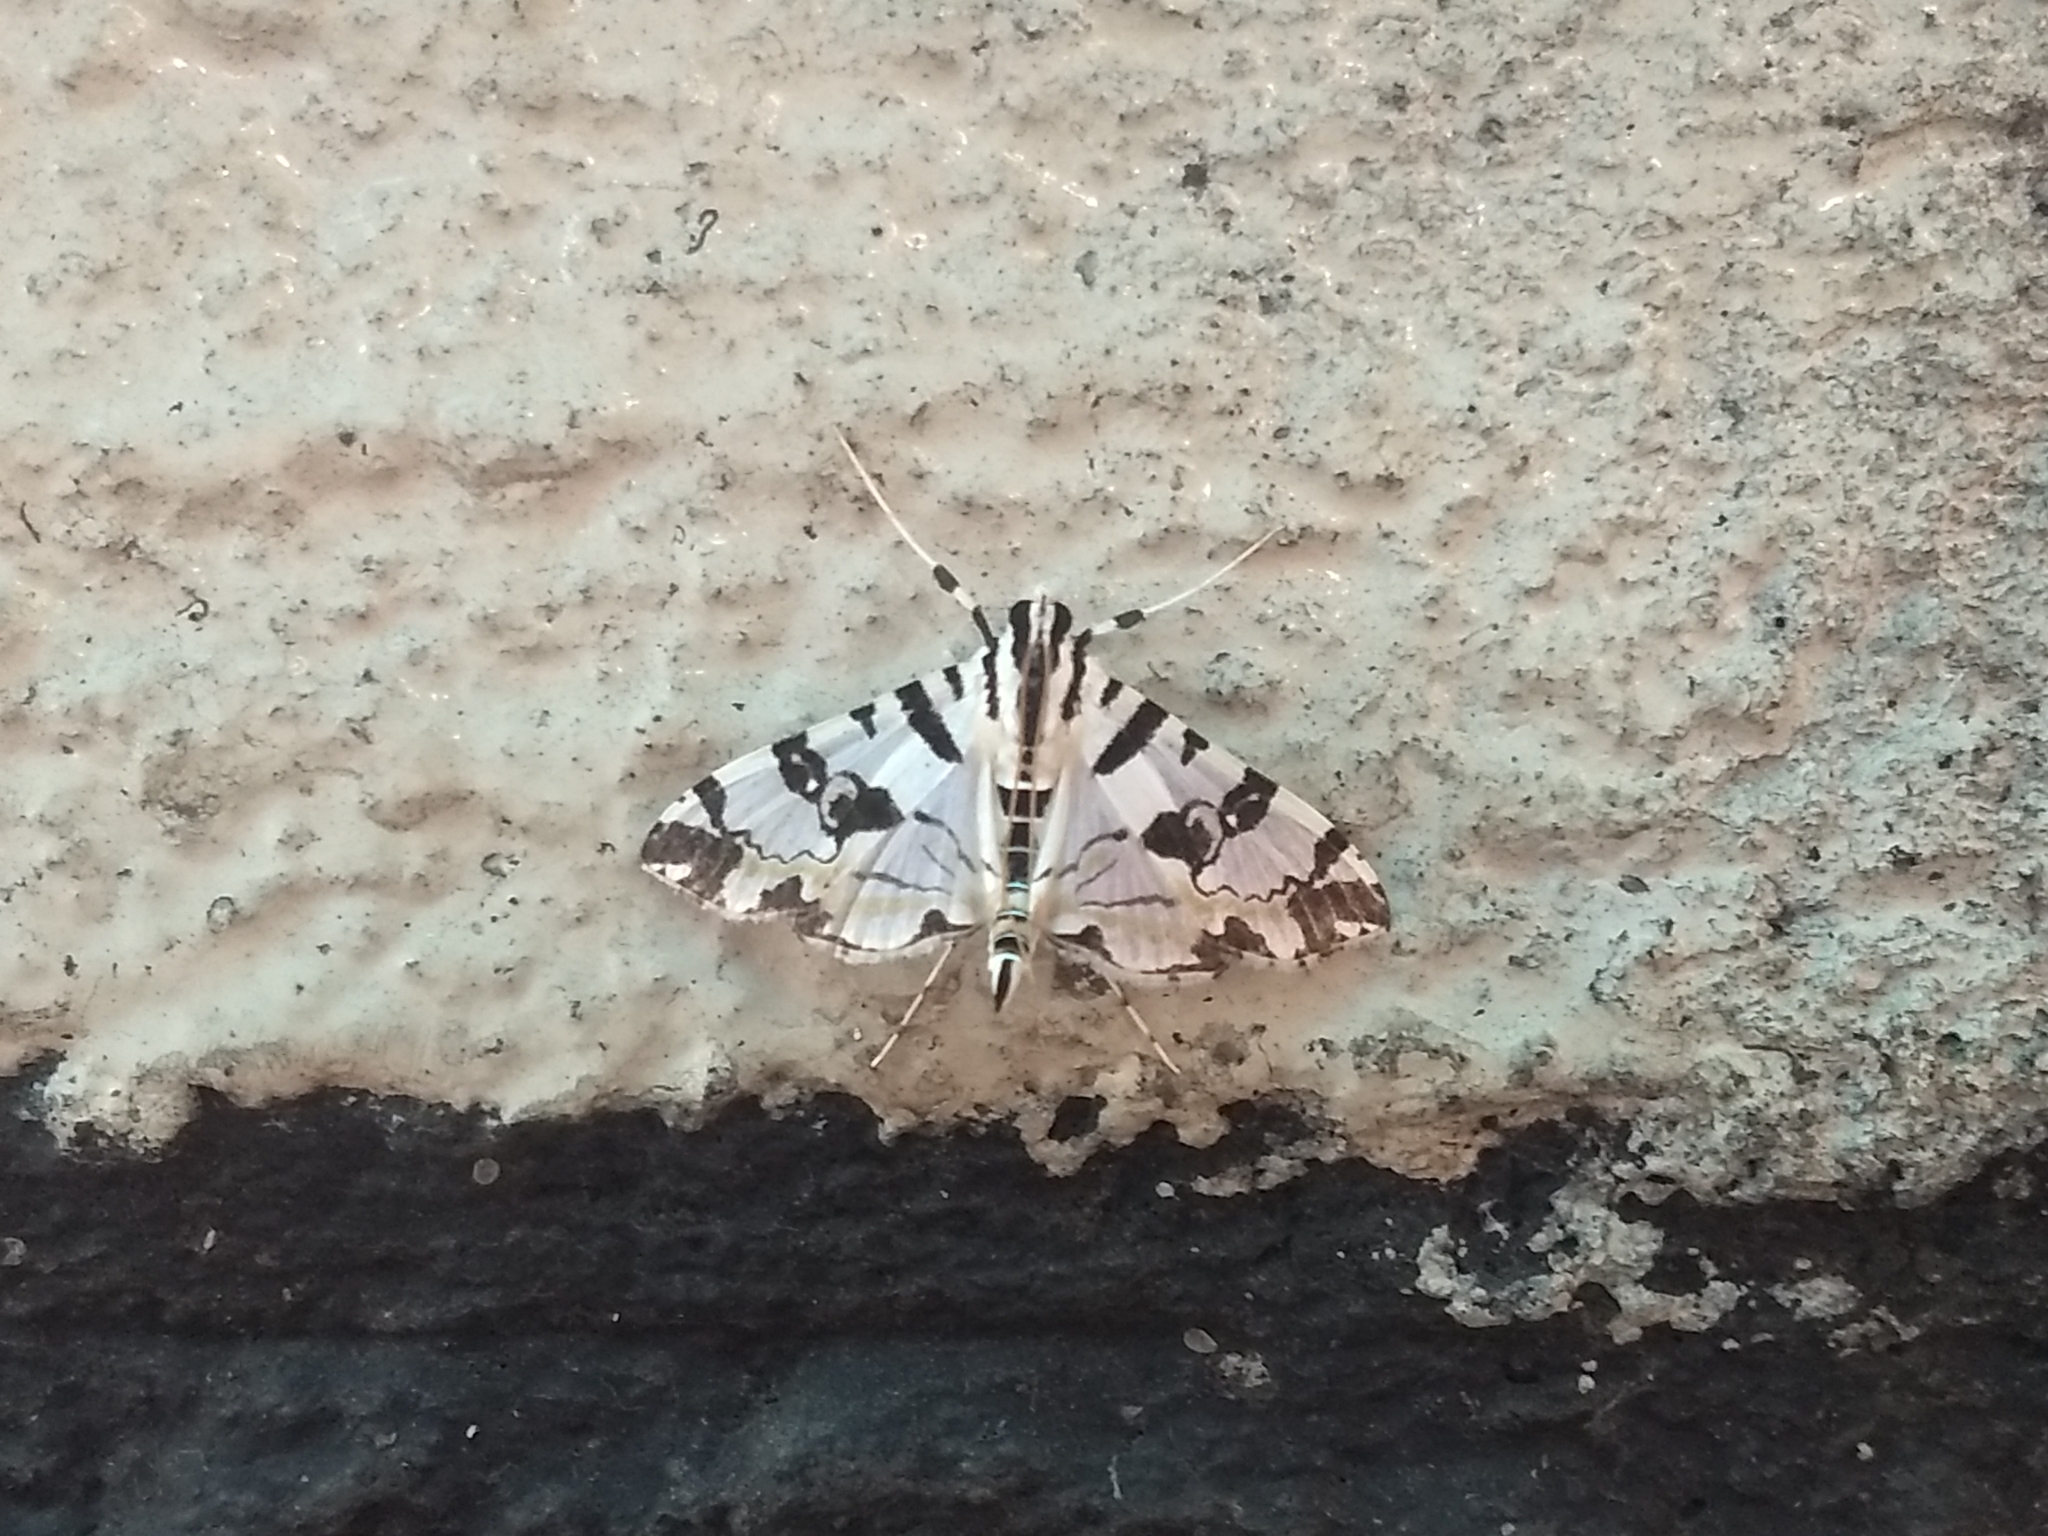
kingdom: Animalia
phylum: Arthropoda
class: Insecta
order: Lepidoptera
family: Crambidae
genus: Conchylodes
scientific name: Conchylodes salamisalis
